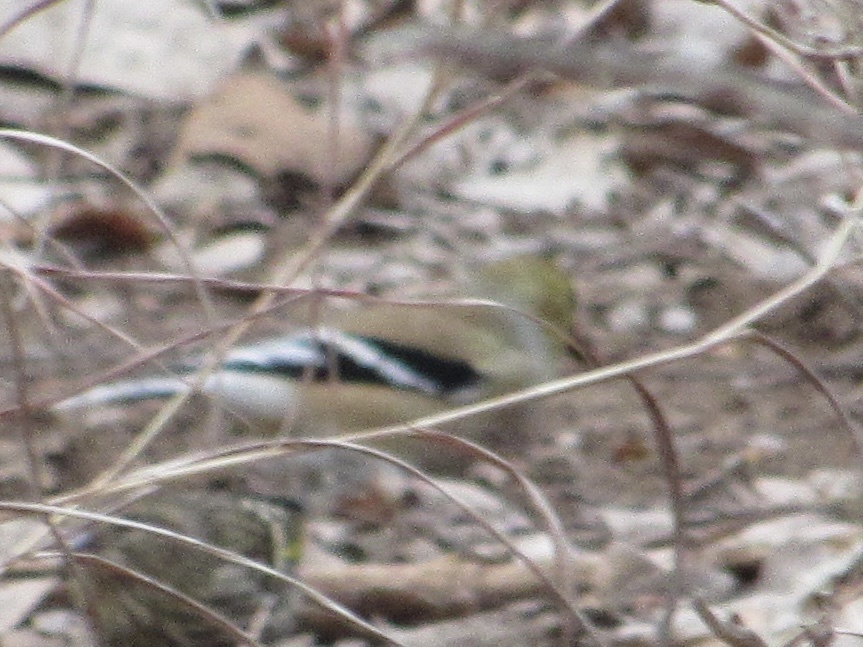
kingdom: Animalia
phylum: Chordata
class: Aves
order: Passeriformes
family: Fringillidae
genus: Spinus
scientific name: Spinus tristis
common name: American goldfinch
